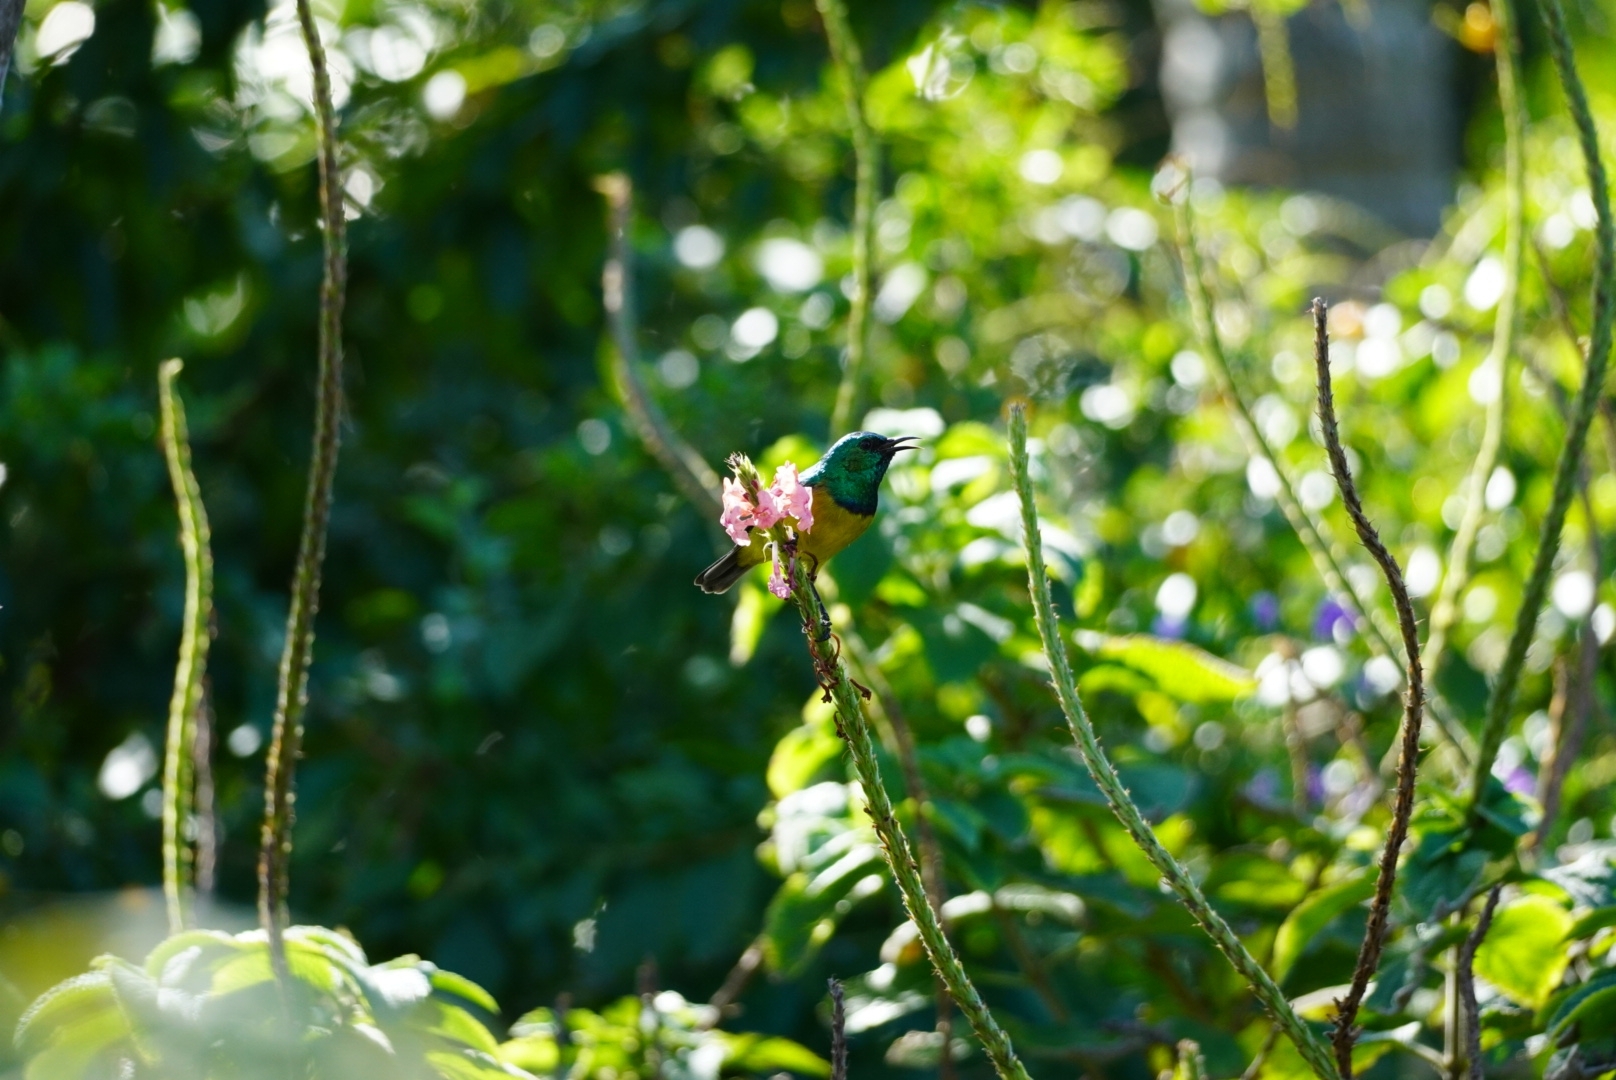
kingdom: Animalia
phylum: Chordata
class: Aves
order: Passeriformes
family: Nectariniidae
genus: Hedydipna
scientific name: Hedydipna collaris
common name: Collared sunbird
